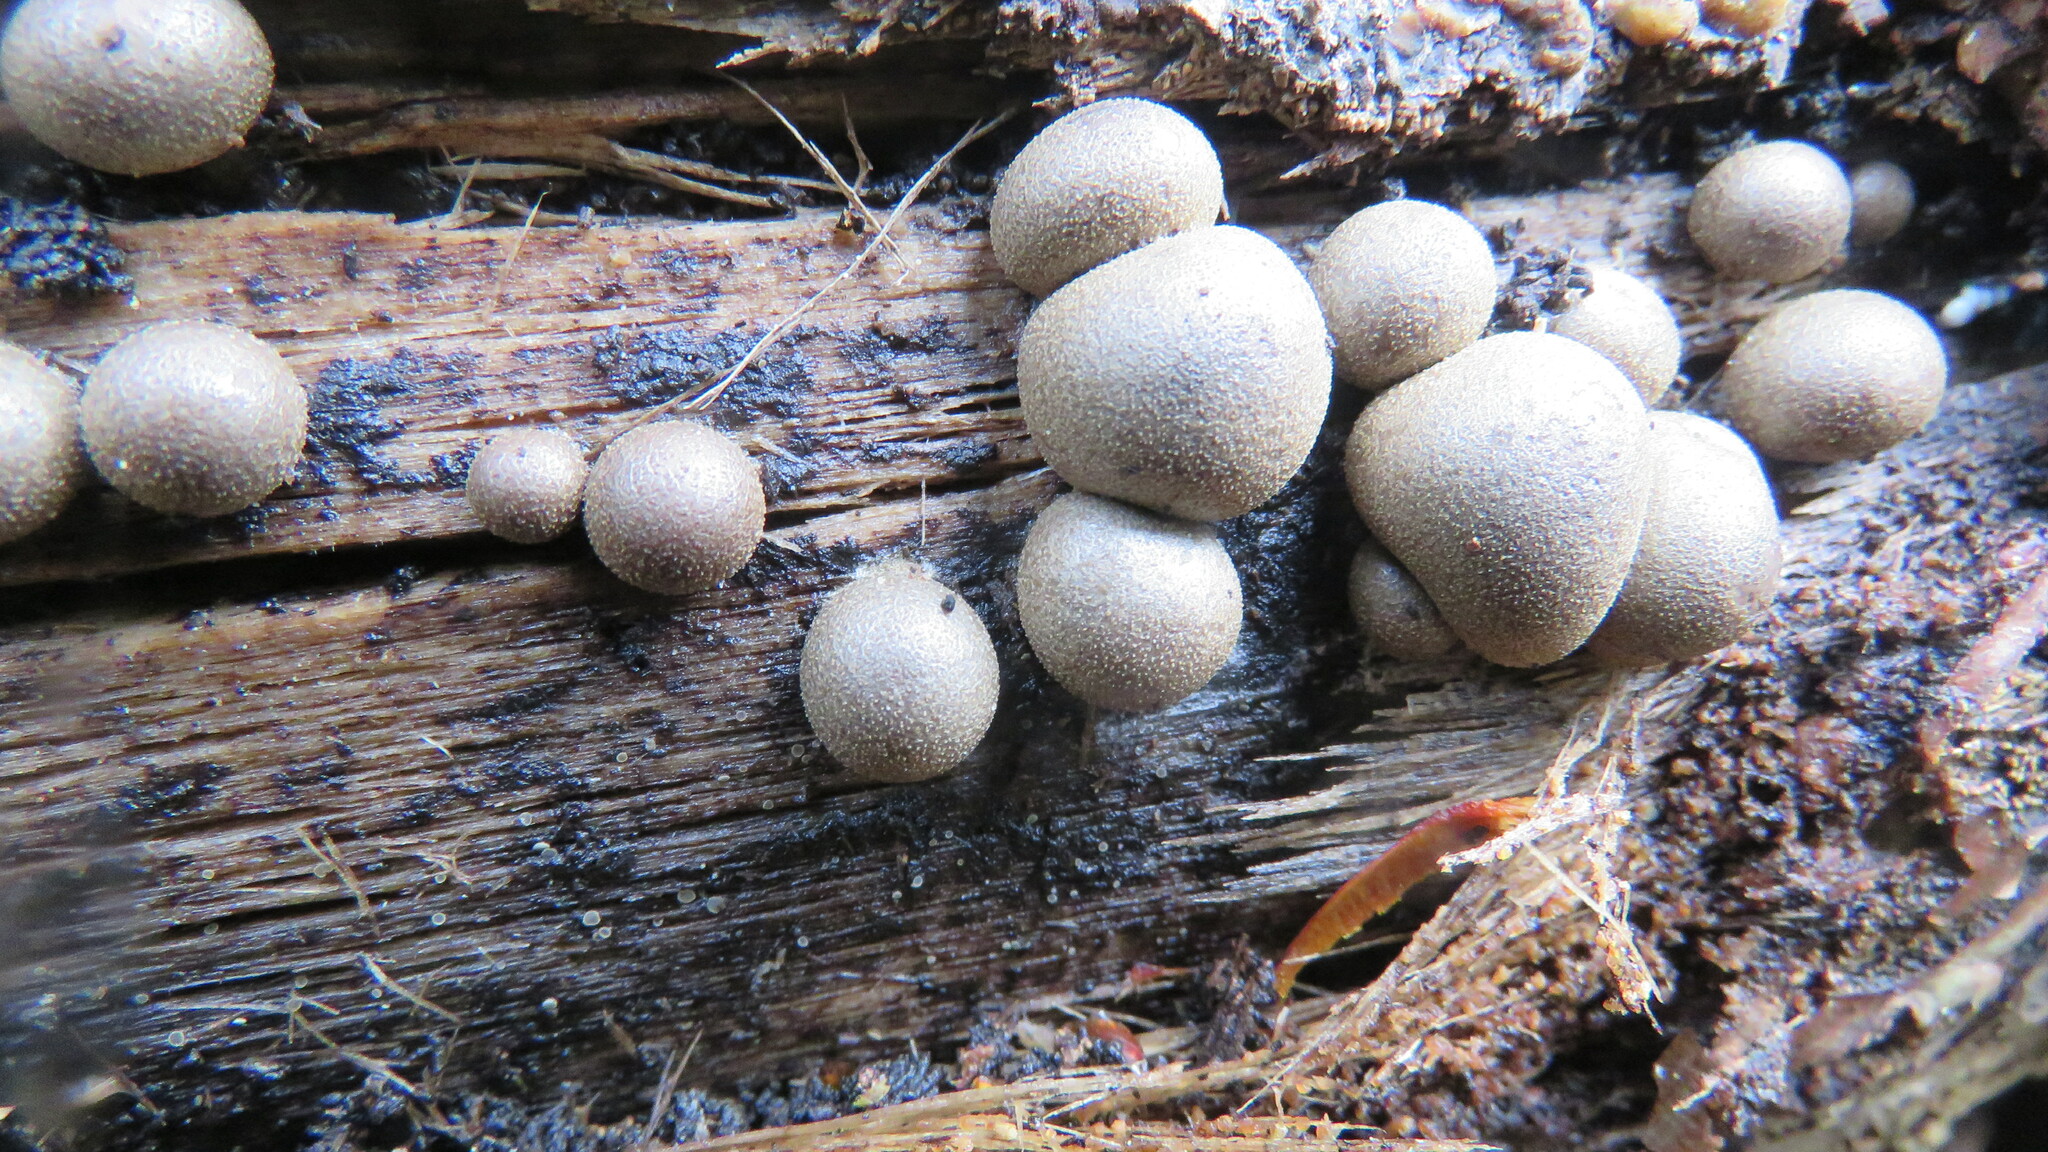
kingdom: Protozoa
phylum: Mycetozoa
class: Myxomycetes
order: Cribrariales
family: Tubiferaceae
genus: Lycogala
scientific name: Lycogala epidendrum
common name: Wolf's milk
